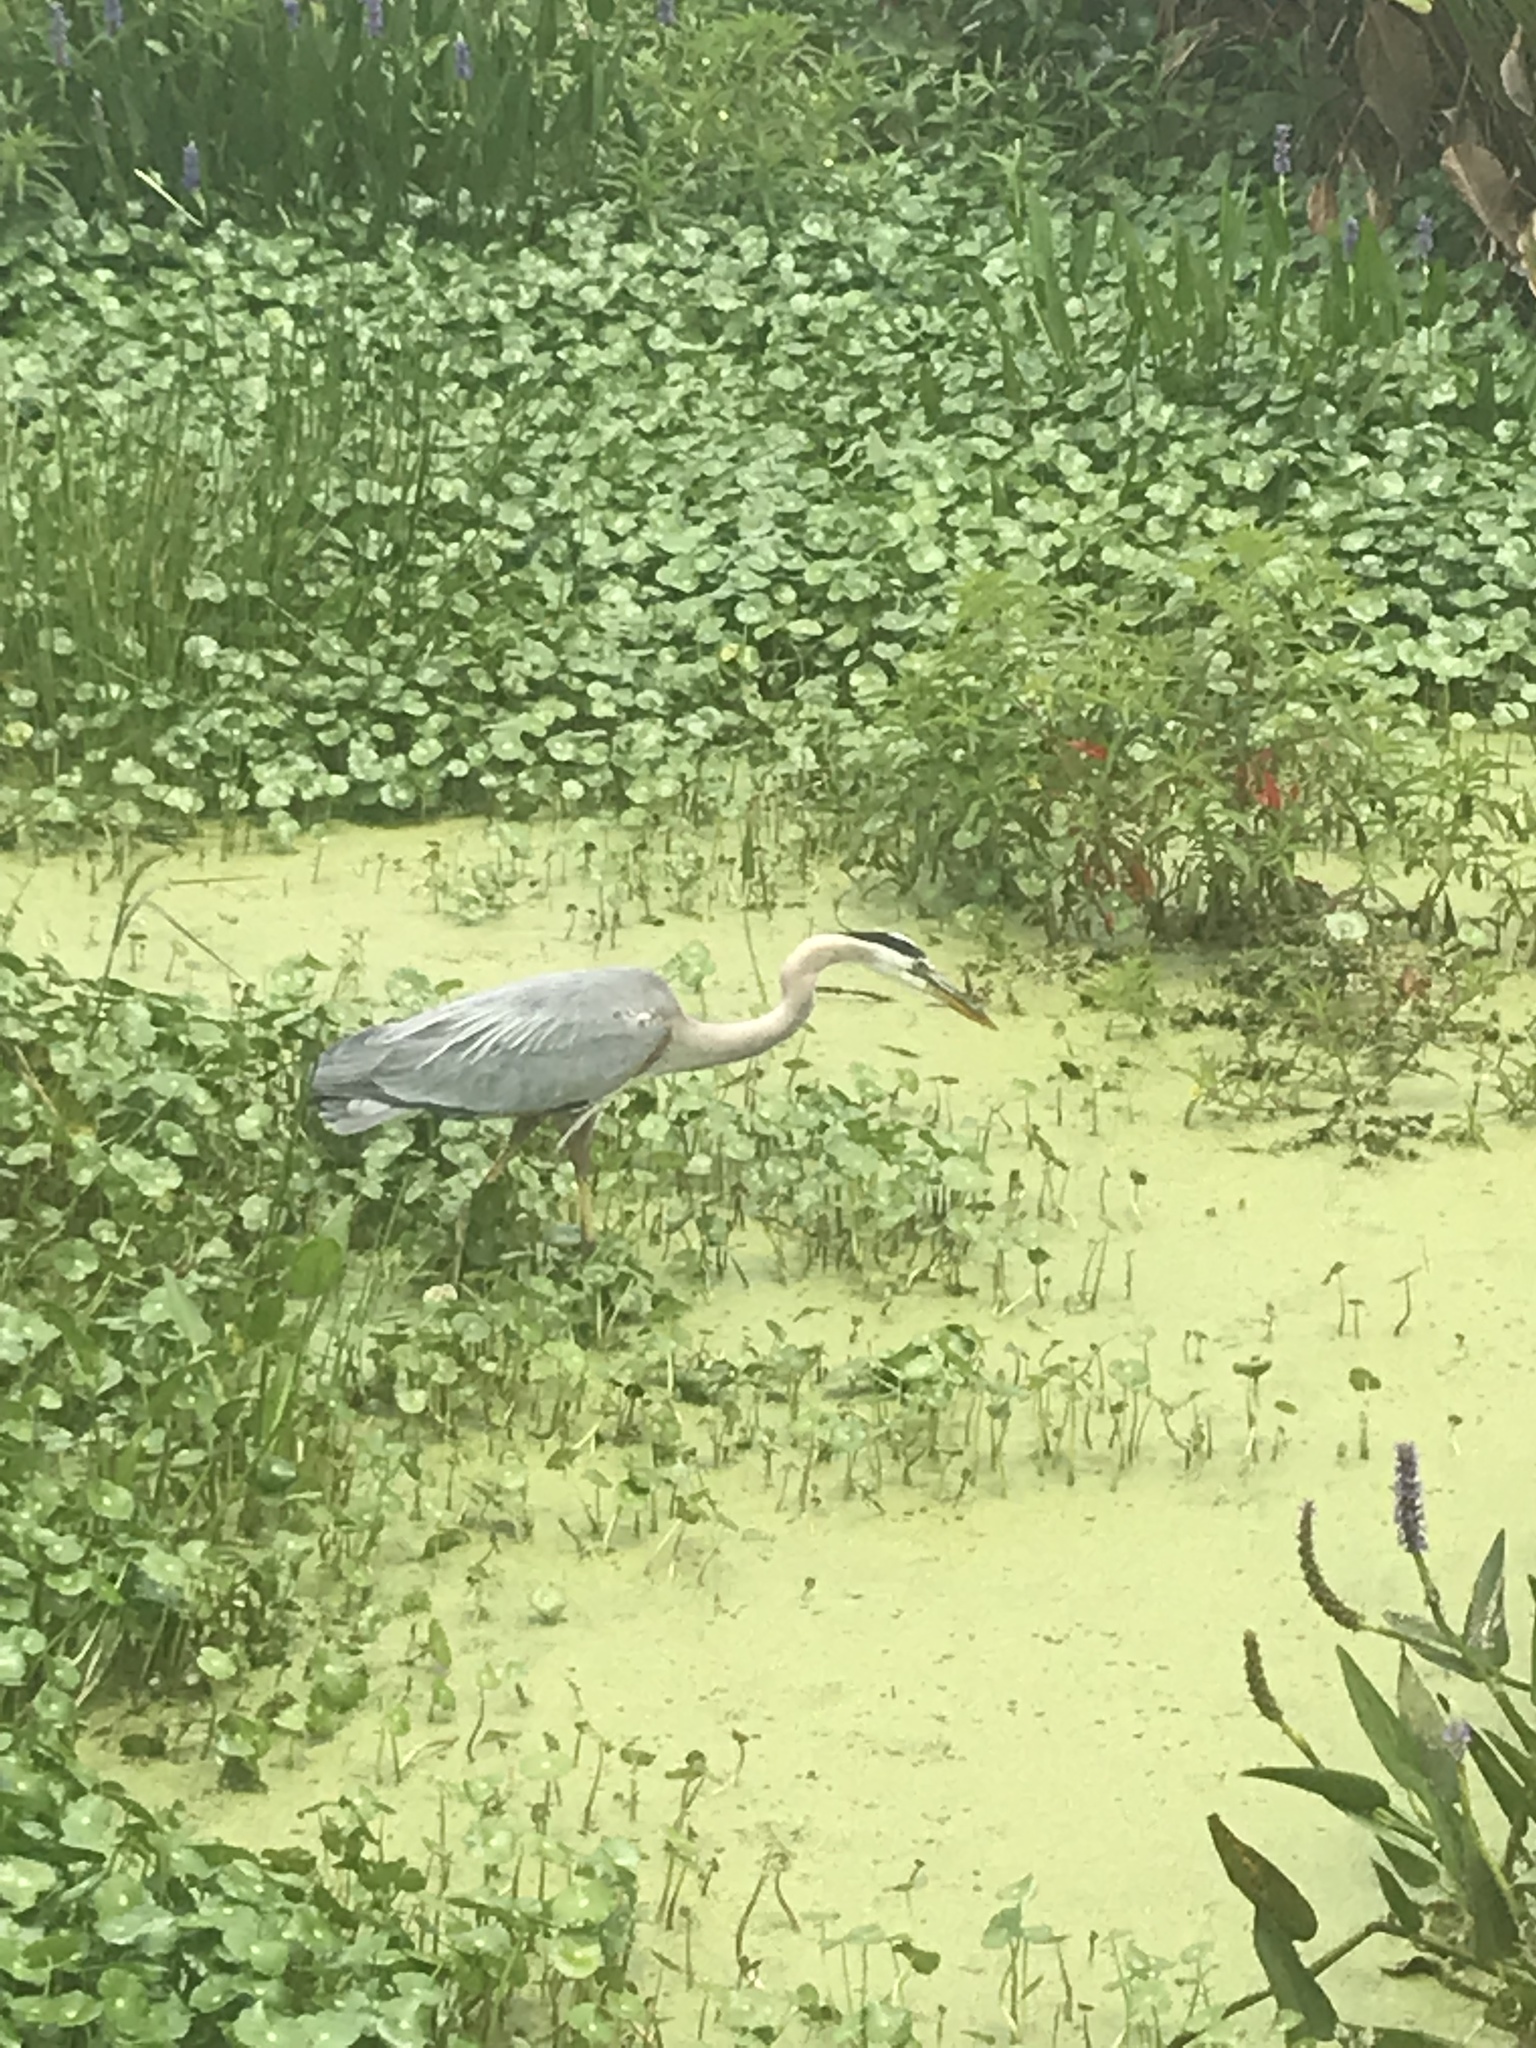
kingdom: Animalia
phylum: Chordata
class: Aves
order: Pelecaniformes
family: Ardeidae
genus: Ardea
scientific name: Ardea herodias
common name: Great blue heron
